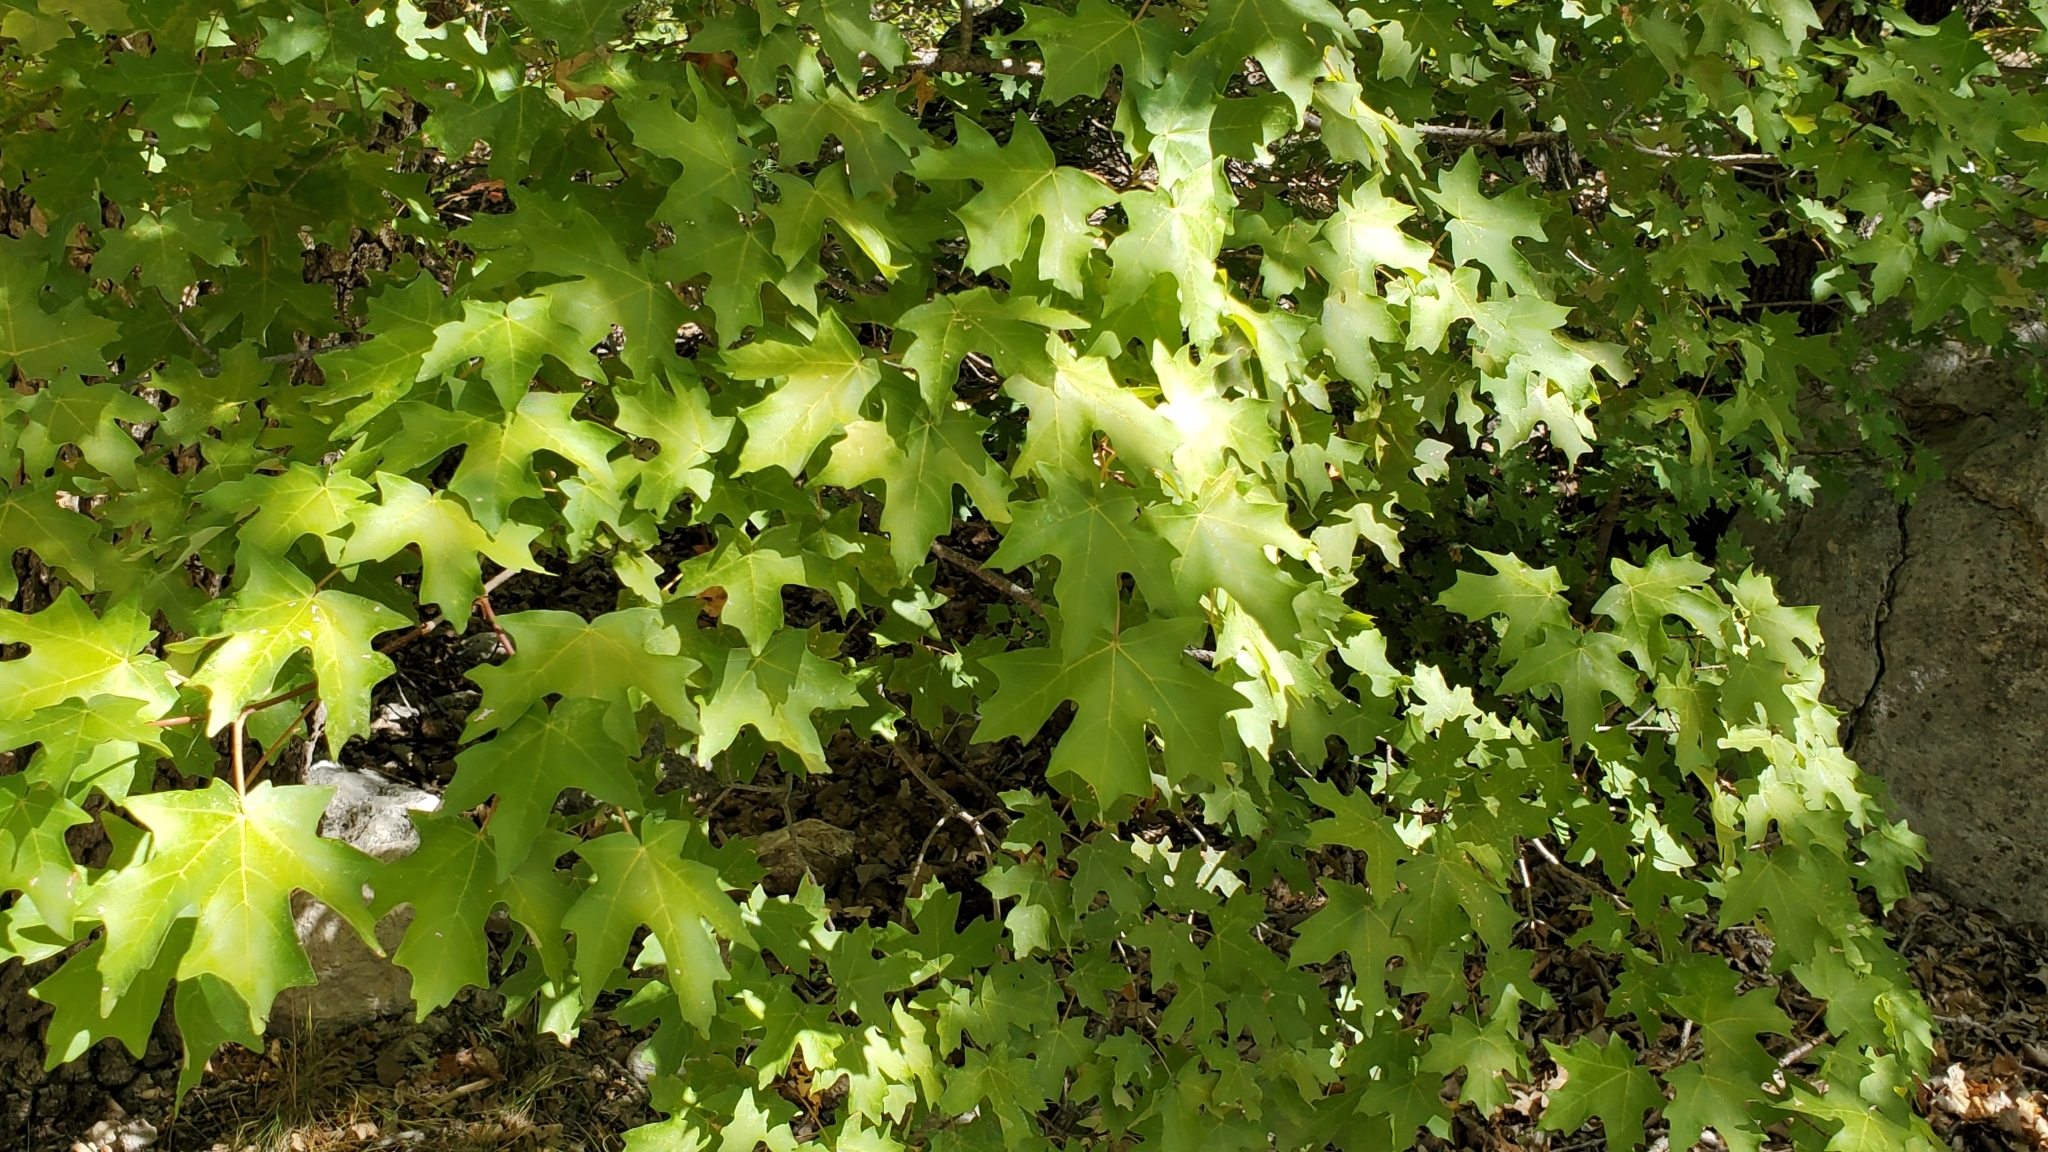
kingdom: Plantae
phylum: Tracheophyta
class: Magnoliopsida
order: Sapindales
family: Sapindaceae
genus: Acer
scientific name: Acer grandidentatum
